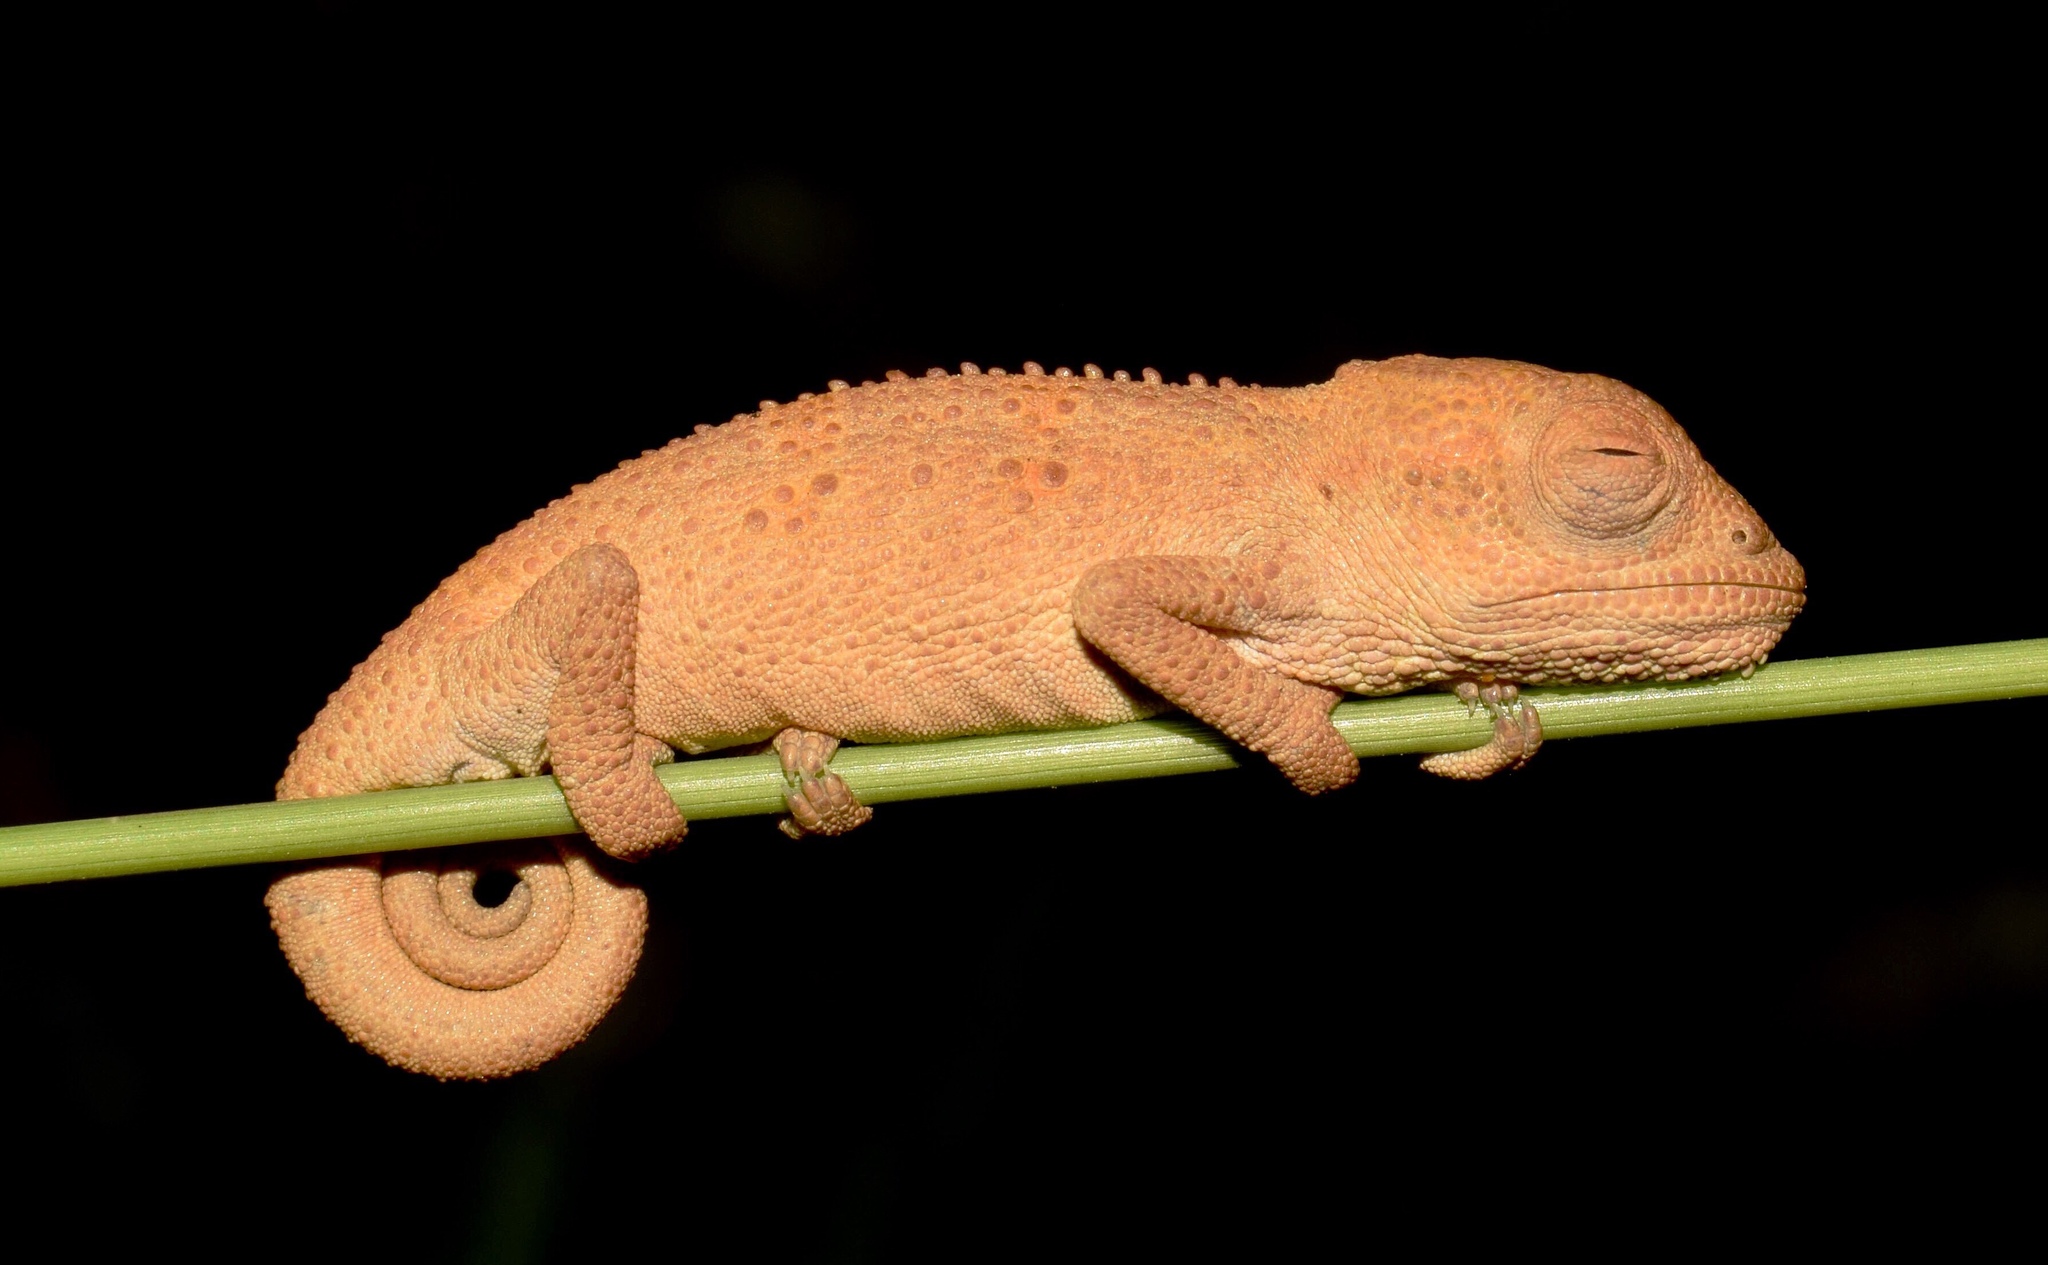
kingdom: Animalia
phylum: Chordata
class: Squamata
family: Chamaeleonidae
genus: Bradypodion
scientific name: Bradypodion melanocephalum
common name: Black-headed dwarf chameleon
